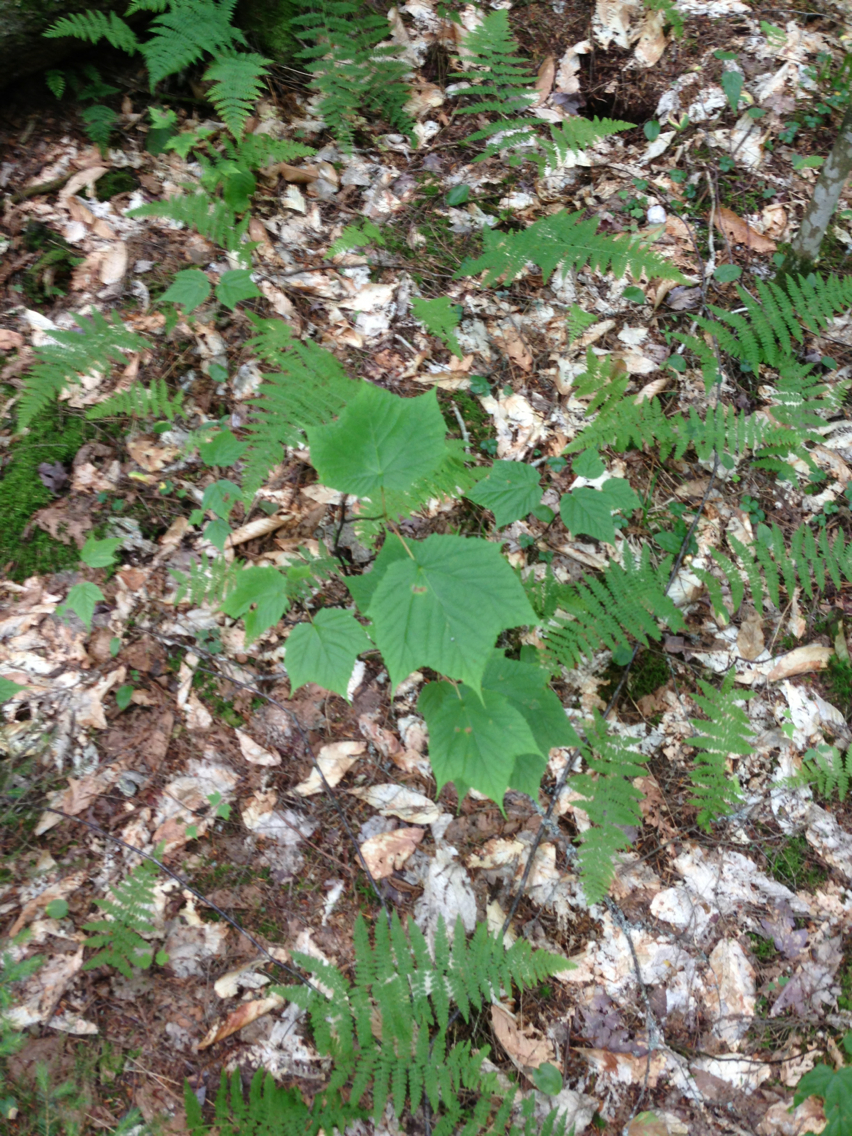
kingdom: Plantae
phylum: Tracheophyta
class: Magnoliopsida
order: Sapindales
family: Sapindaceae
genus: Acer
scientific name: Acer pensylvanicum
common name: Moosewood
